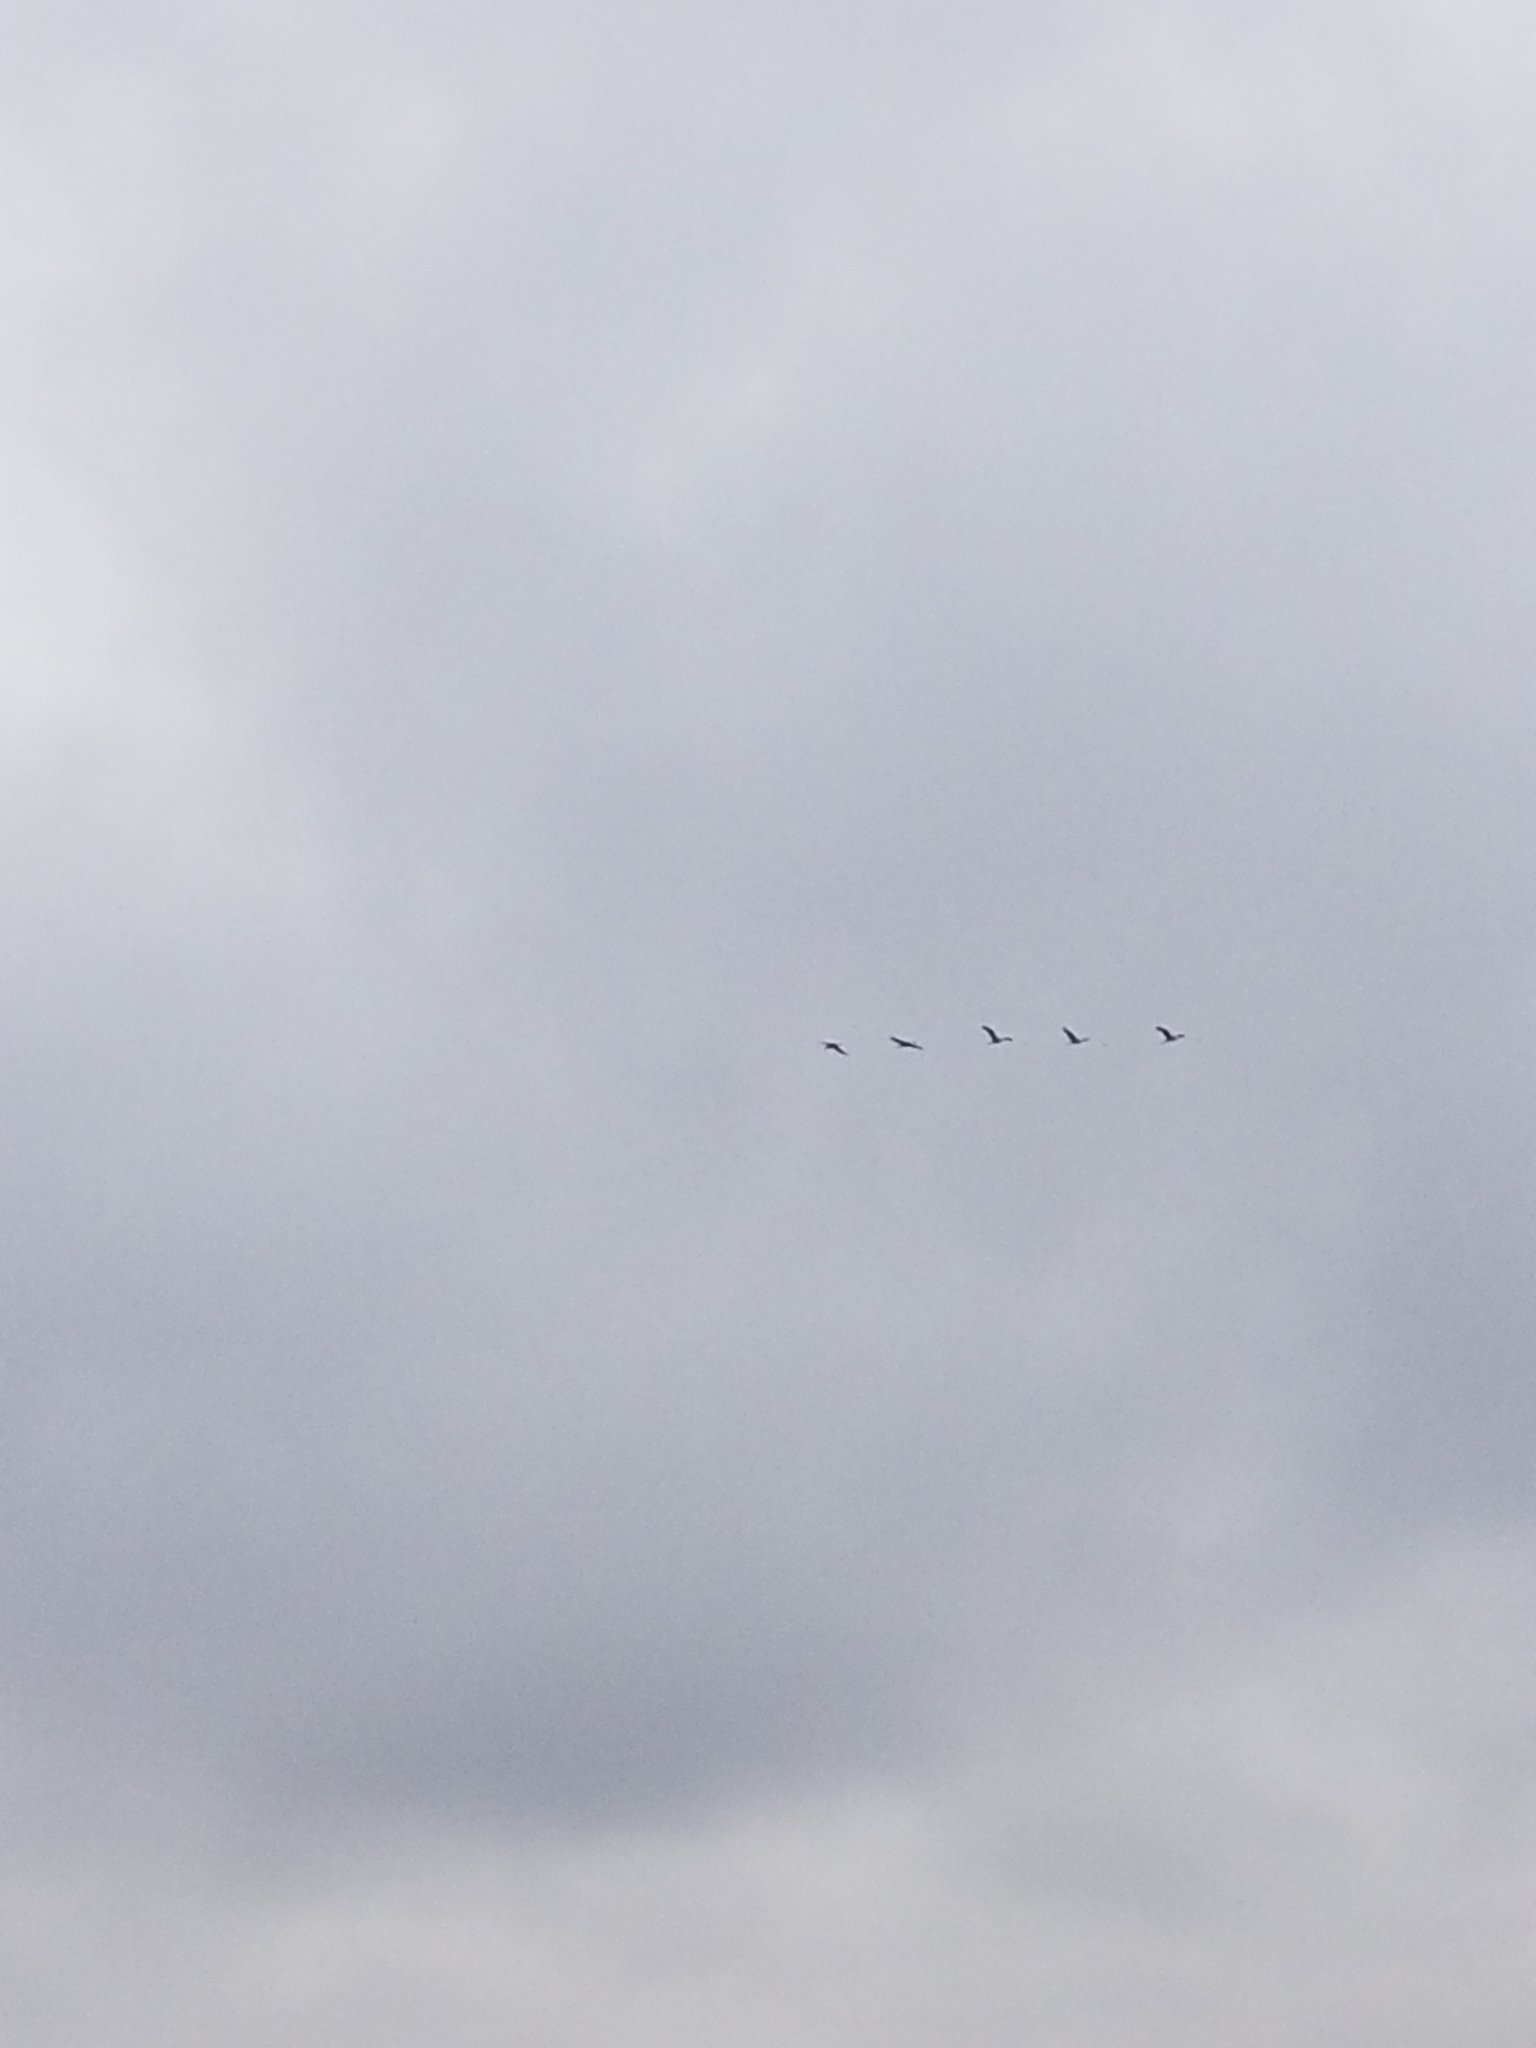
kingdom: Animalia
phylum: Chordata
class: Aves
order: Gruiformes
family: Gruidae
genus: Grus
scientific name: Grus canadensis
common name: Sandhill crane
